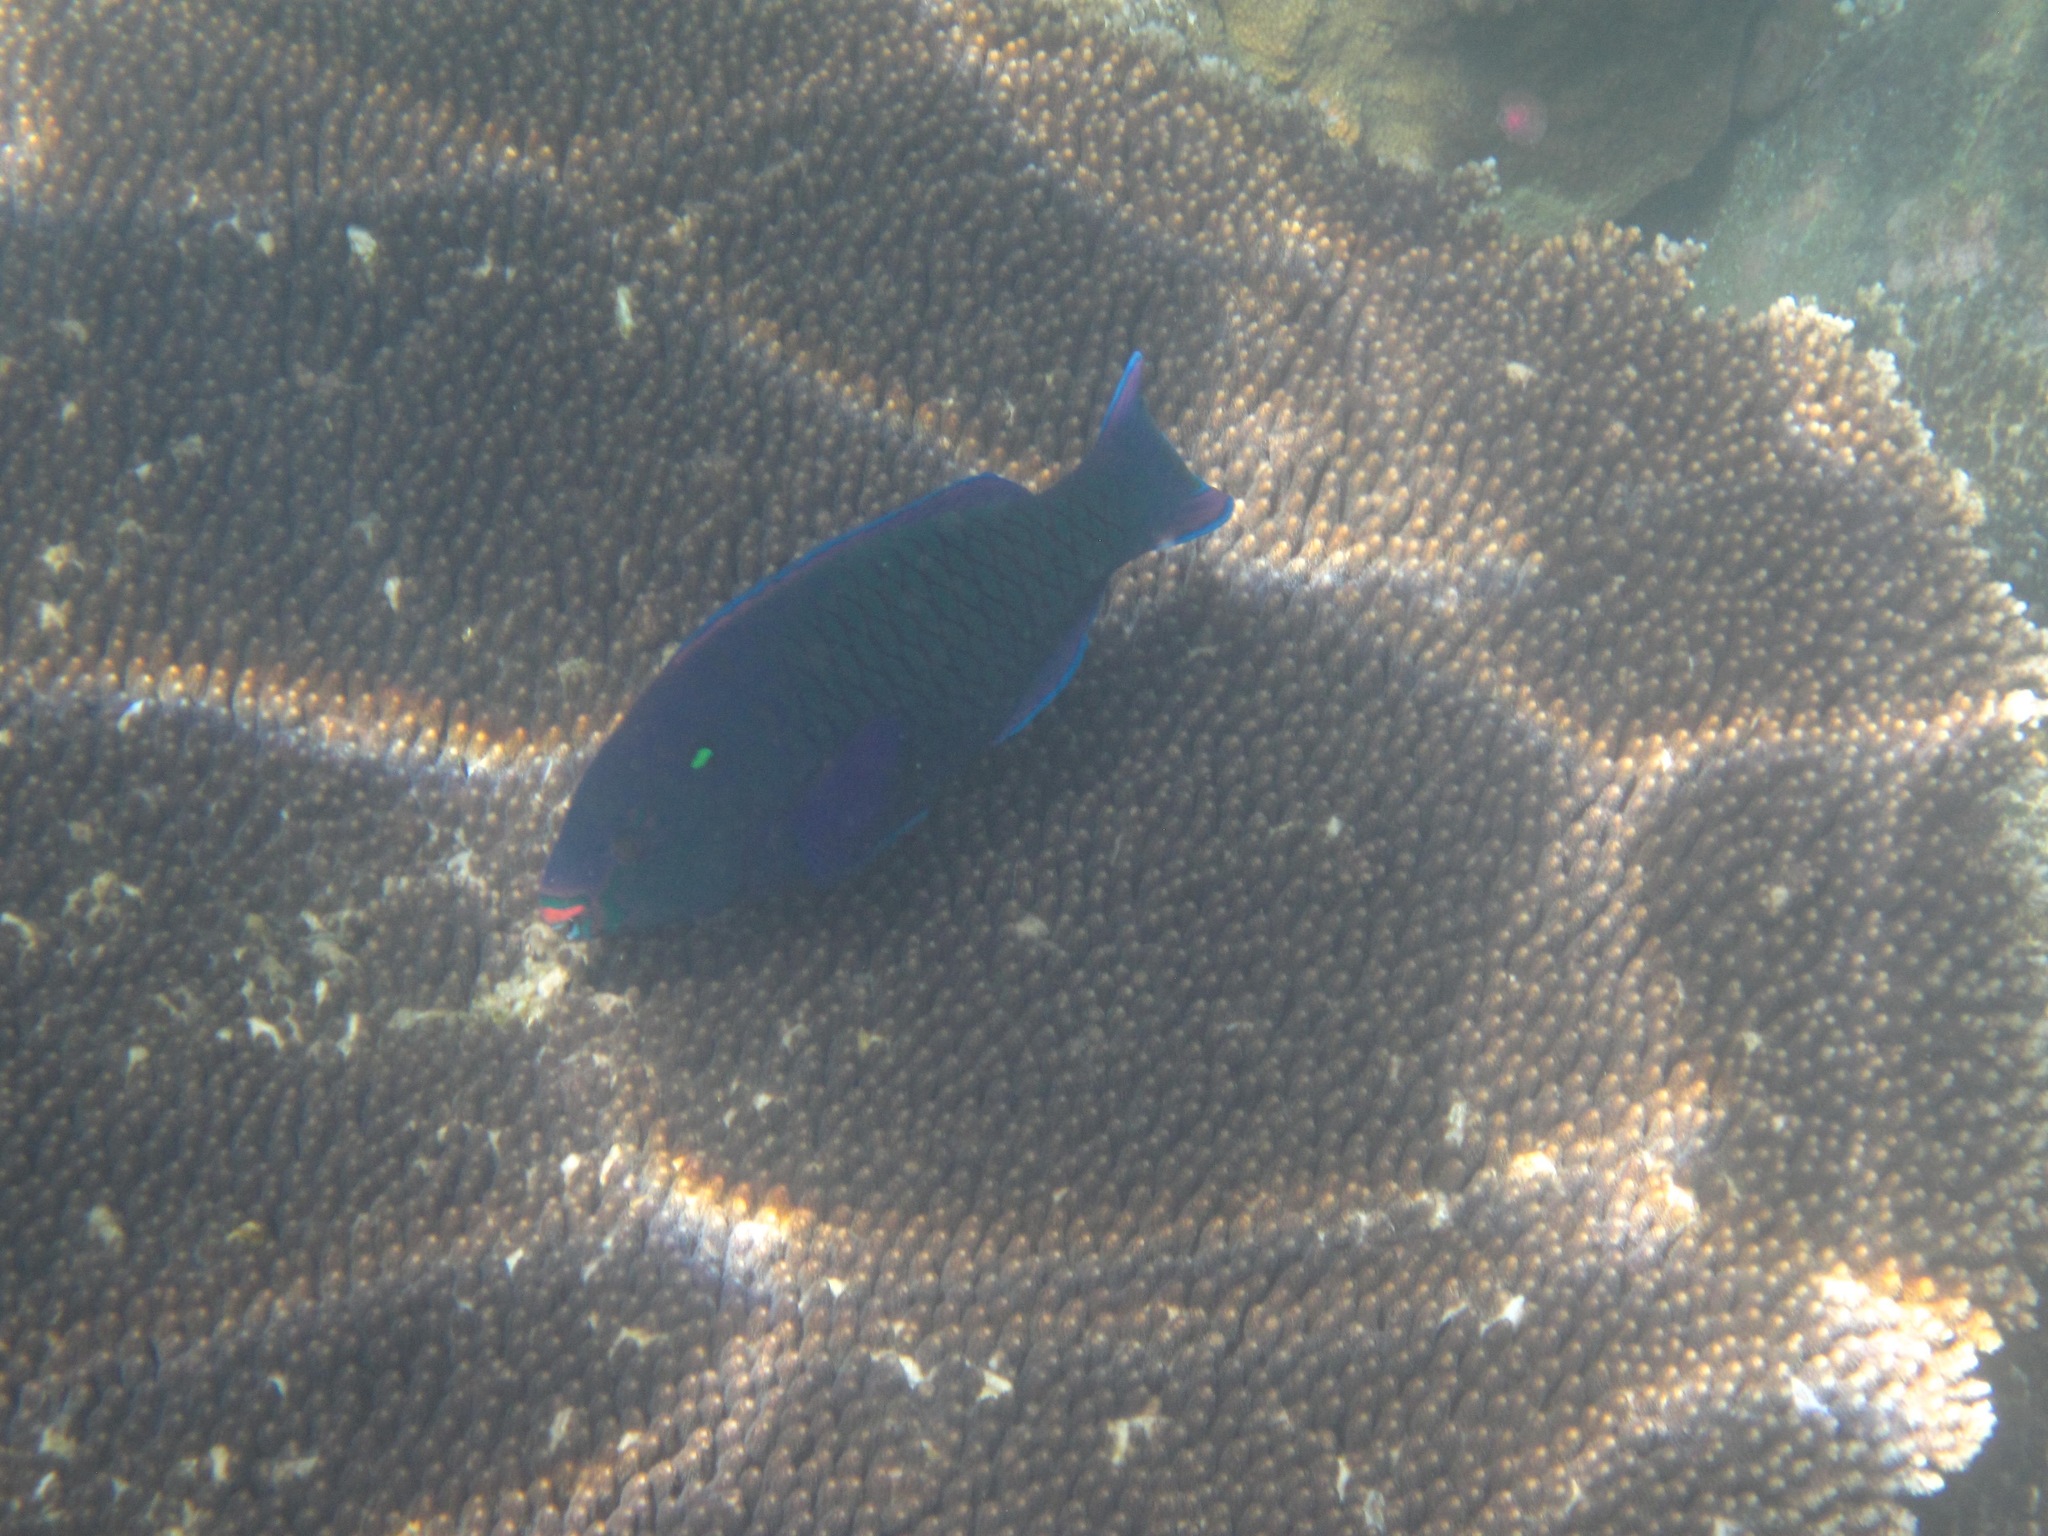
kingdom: Animalia
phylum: Chordata
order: Perciformes
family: Scaridae
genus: Scarus
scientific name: Scarus niger
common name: Dusky parrotfish
